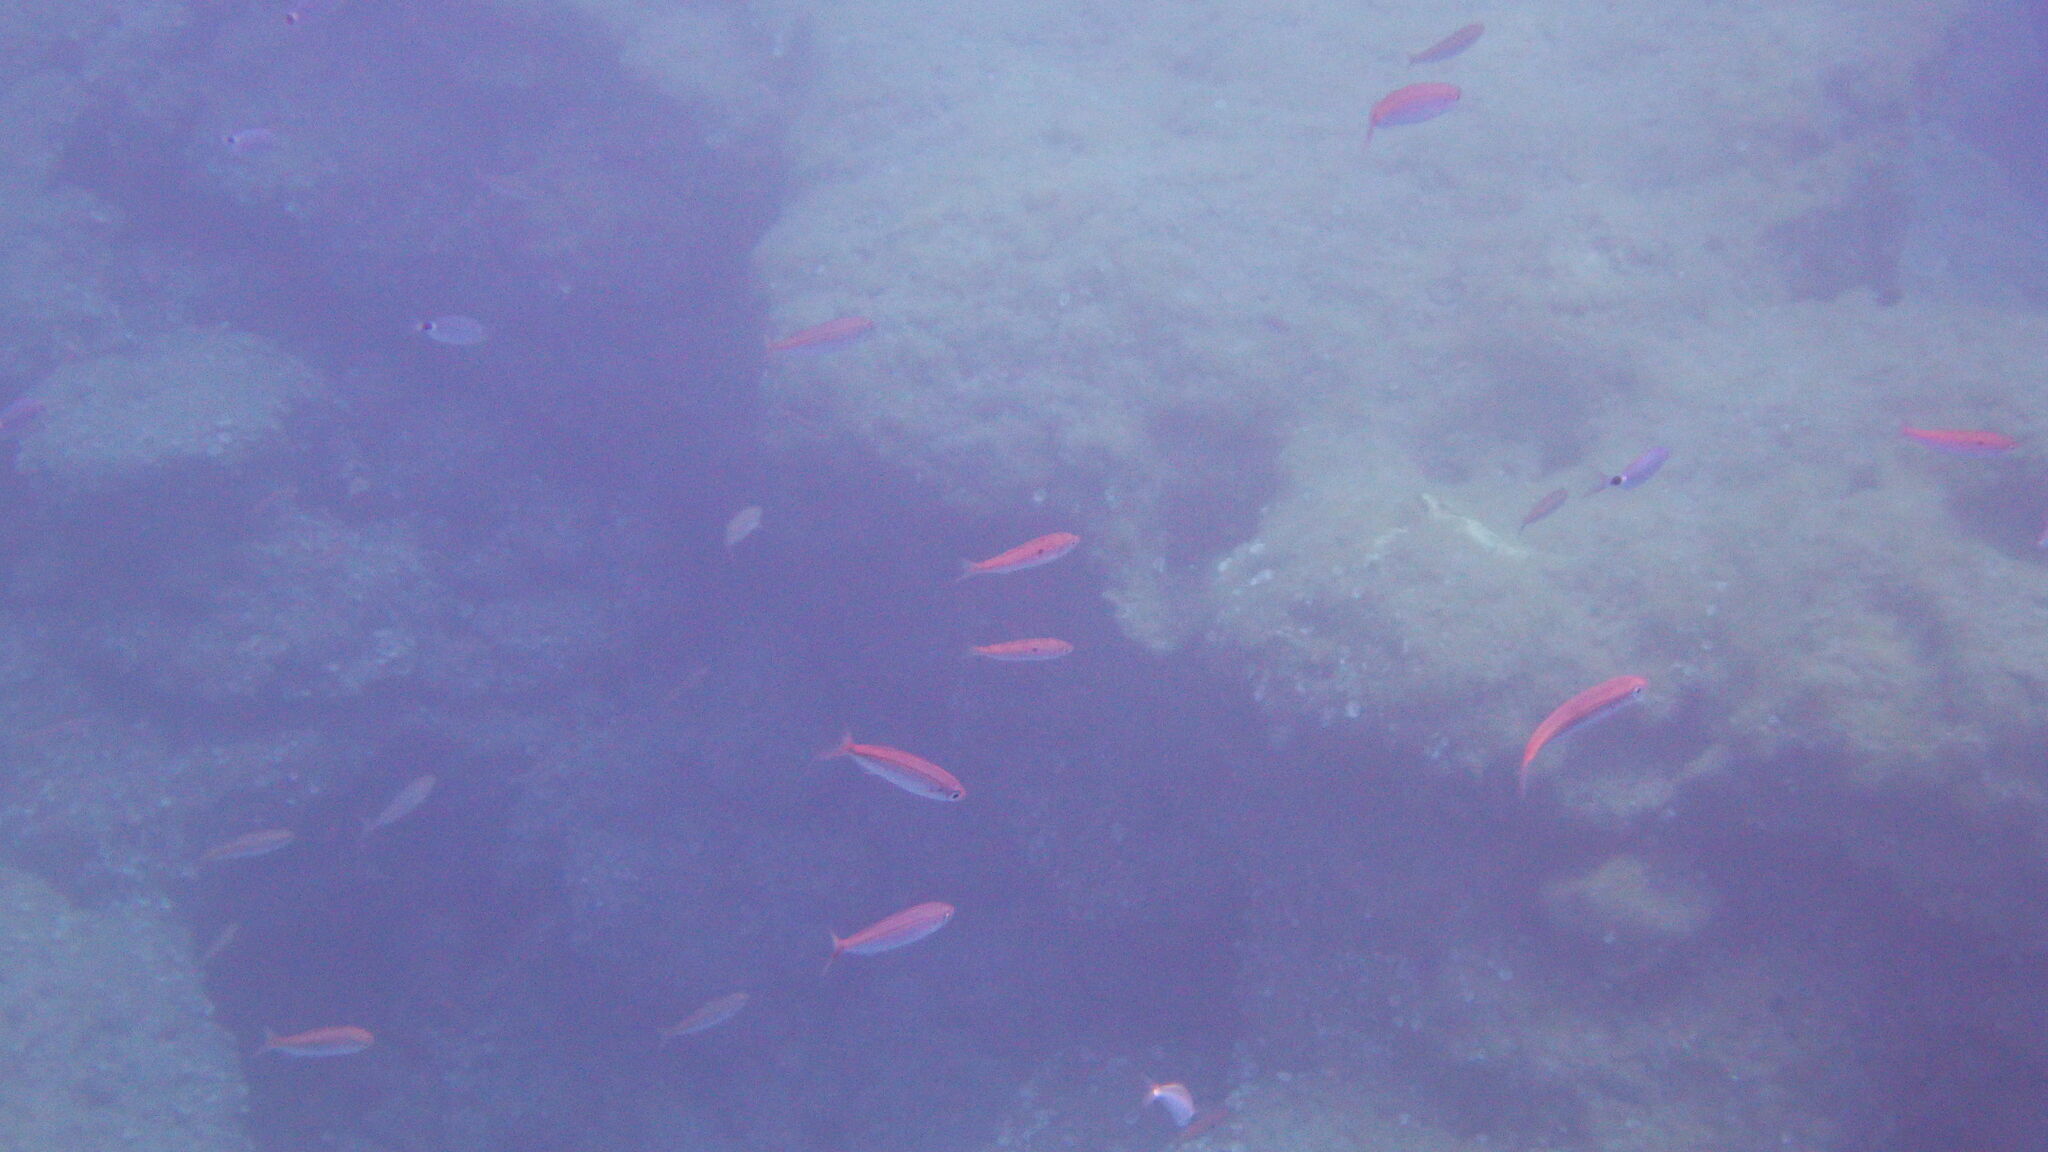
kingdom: Animalia
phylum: Chordata
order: Perciformes
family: Sparidae
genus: Boops
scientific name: Boops boops
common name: Bogue
